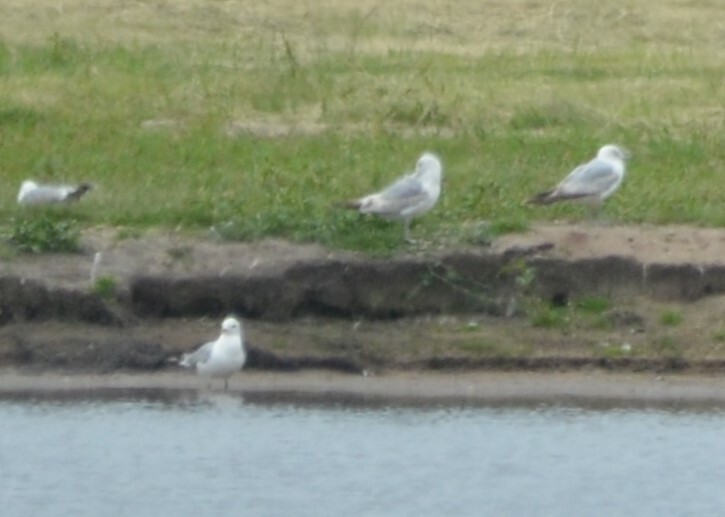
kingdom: Animalia
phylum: Chordata
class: Aves
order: Charadriiformes
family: Laridae
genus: Larus
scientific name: Larus canus
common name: Mew gull
